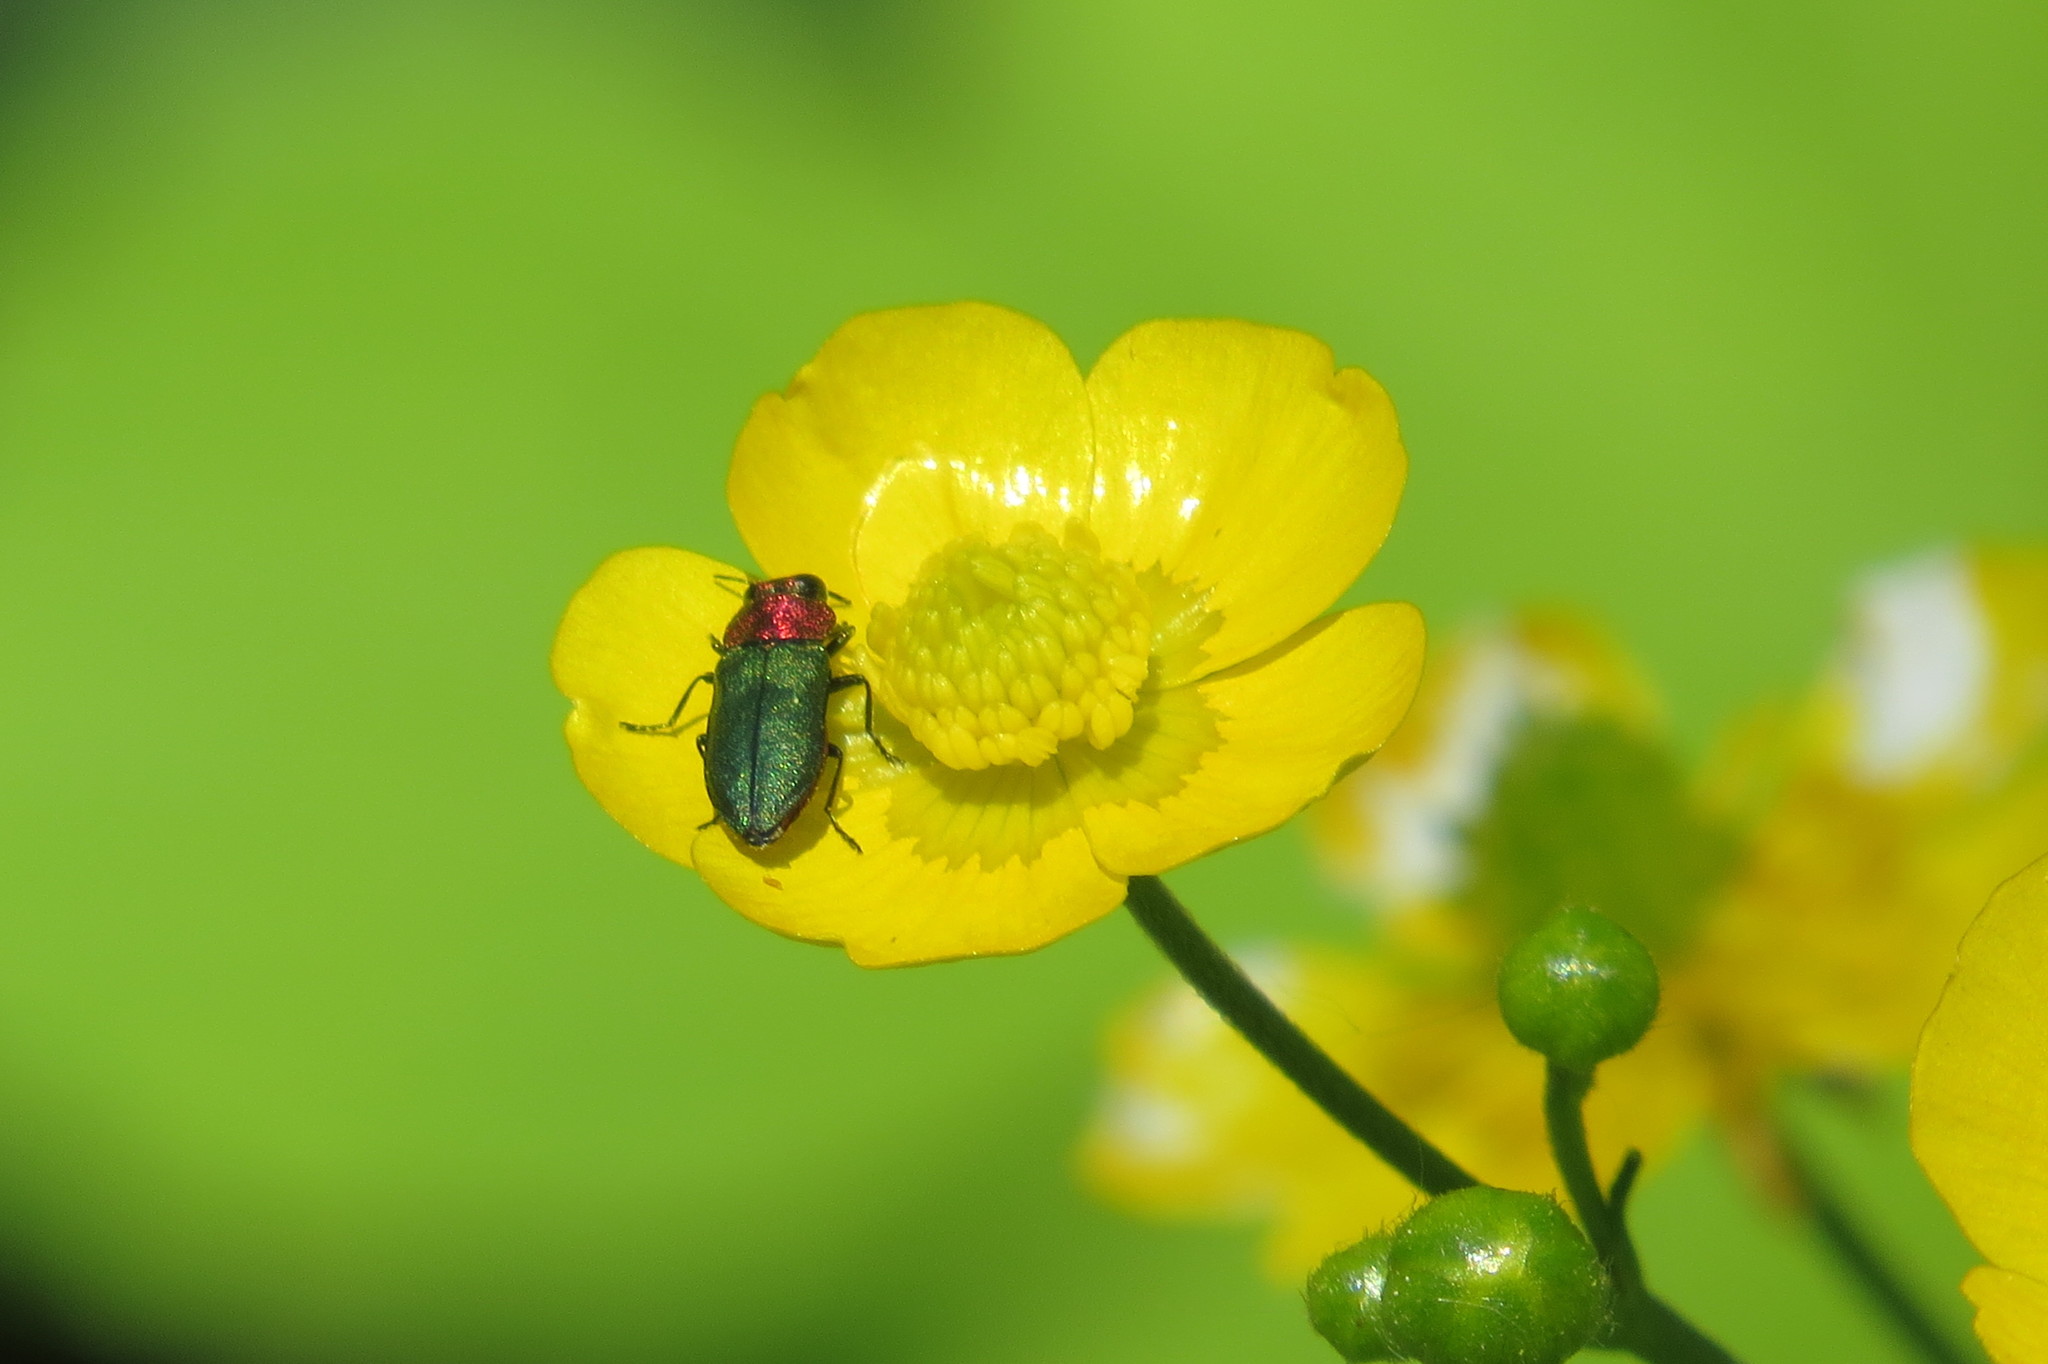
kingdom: Animalia
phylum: Arthropoda
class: Insecta
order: Coleoptera
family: Buprestidae
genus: Anthaxia
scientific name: Anthaxia nitidula
